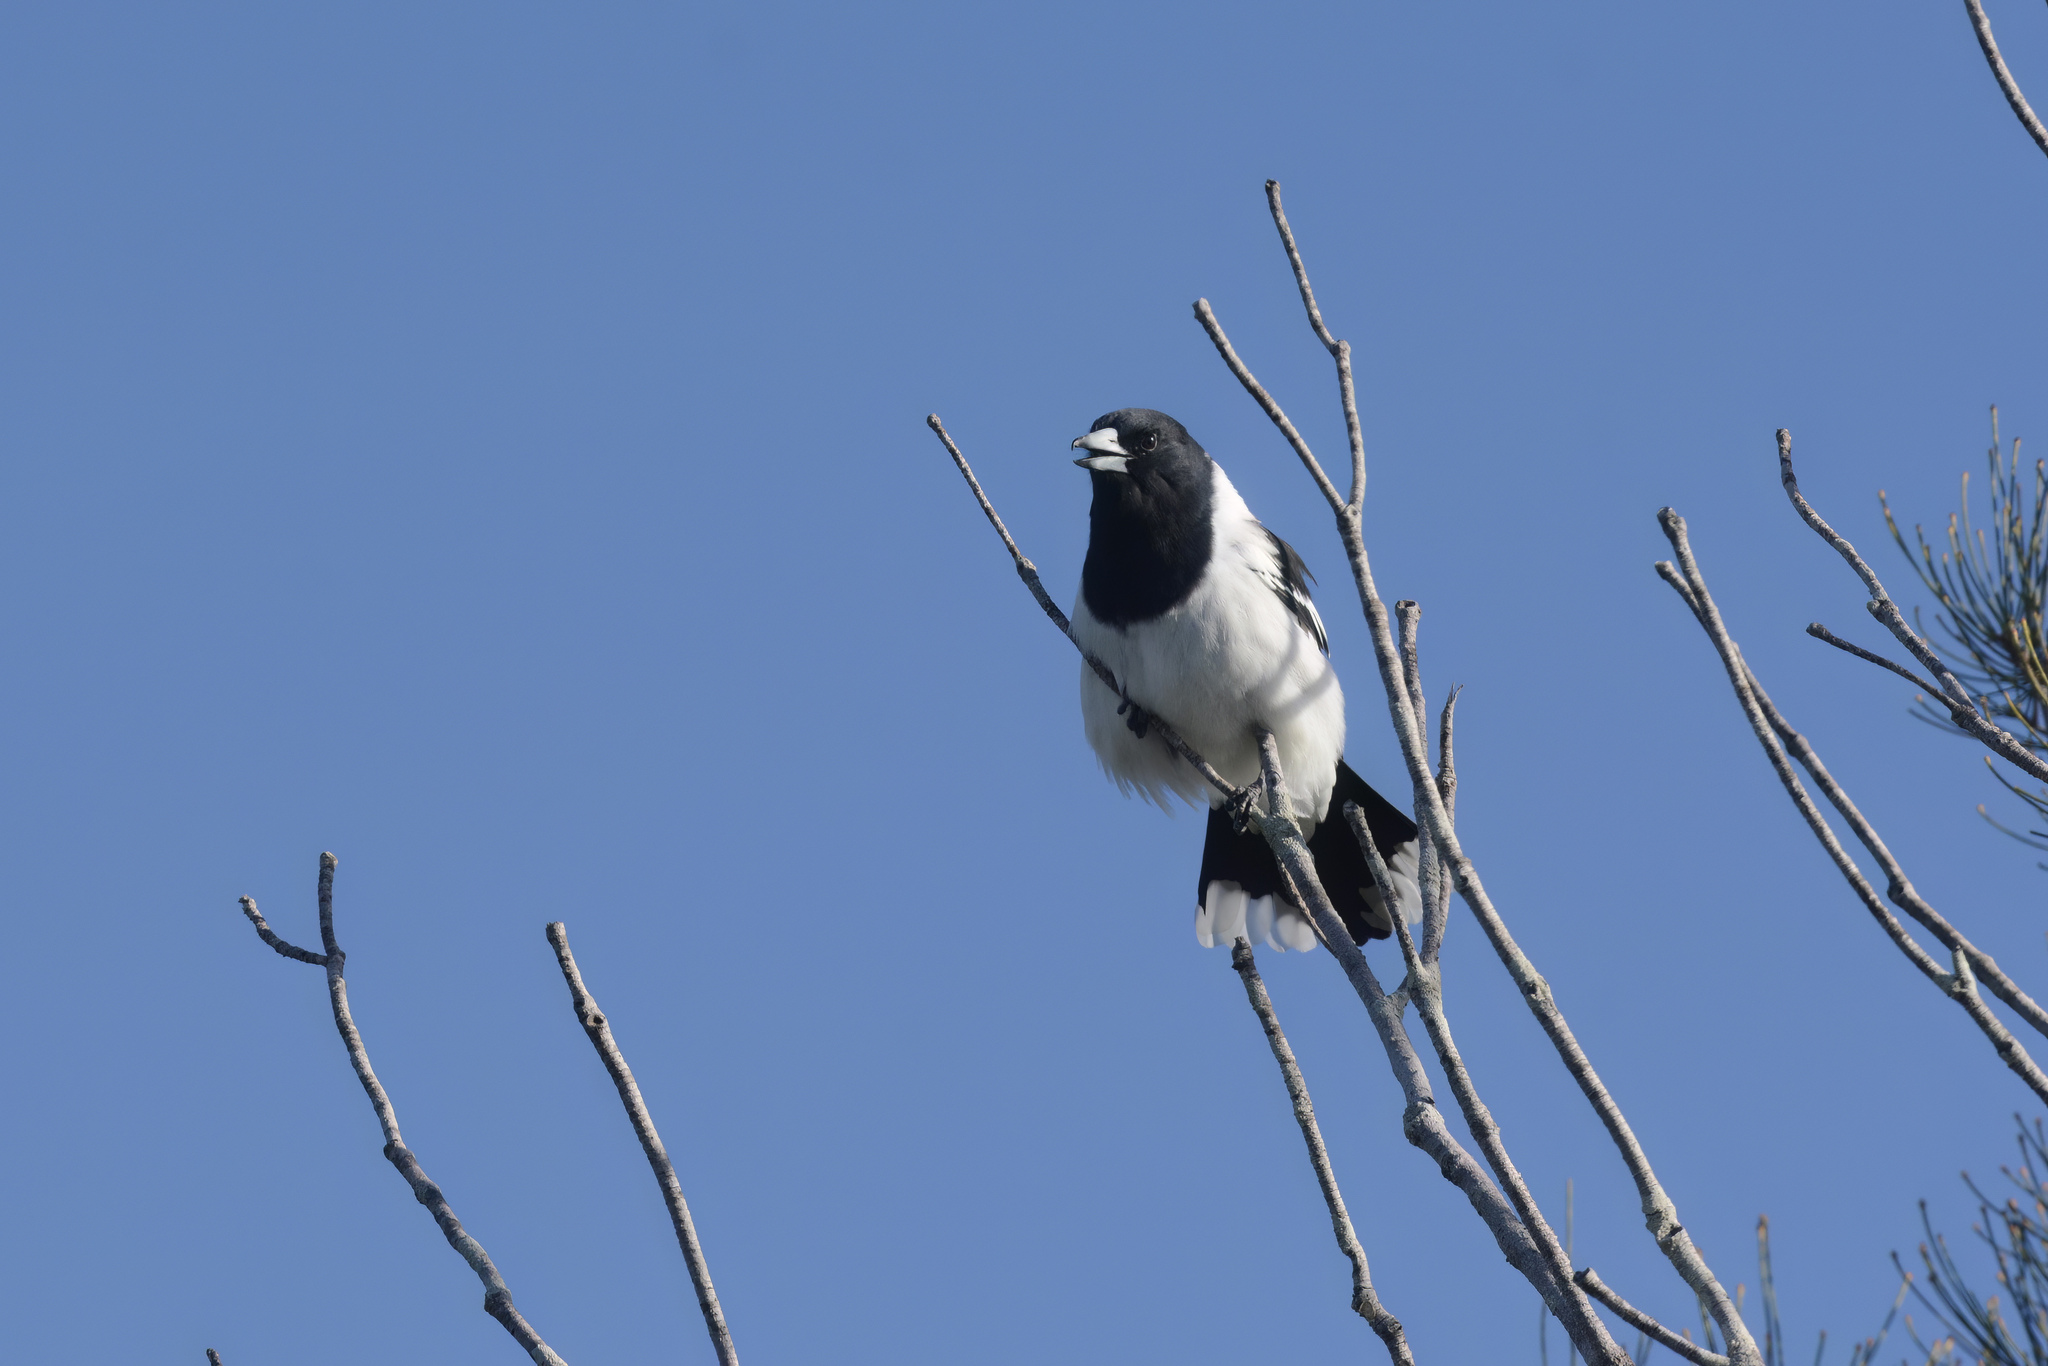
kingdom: Animalia
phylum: Chordata
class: Aves
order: Passeriformes
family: Cracticidae
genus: Cracticus
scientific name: Cracticus nigrogularis
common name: Pied butcherbird
